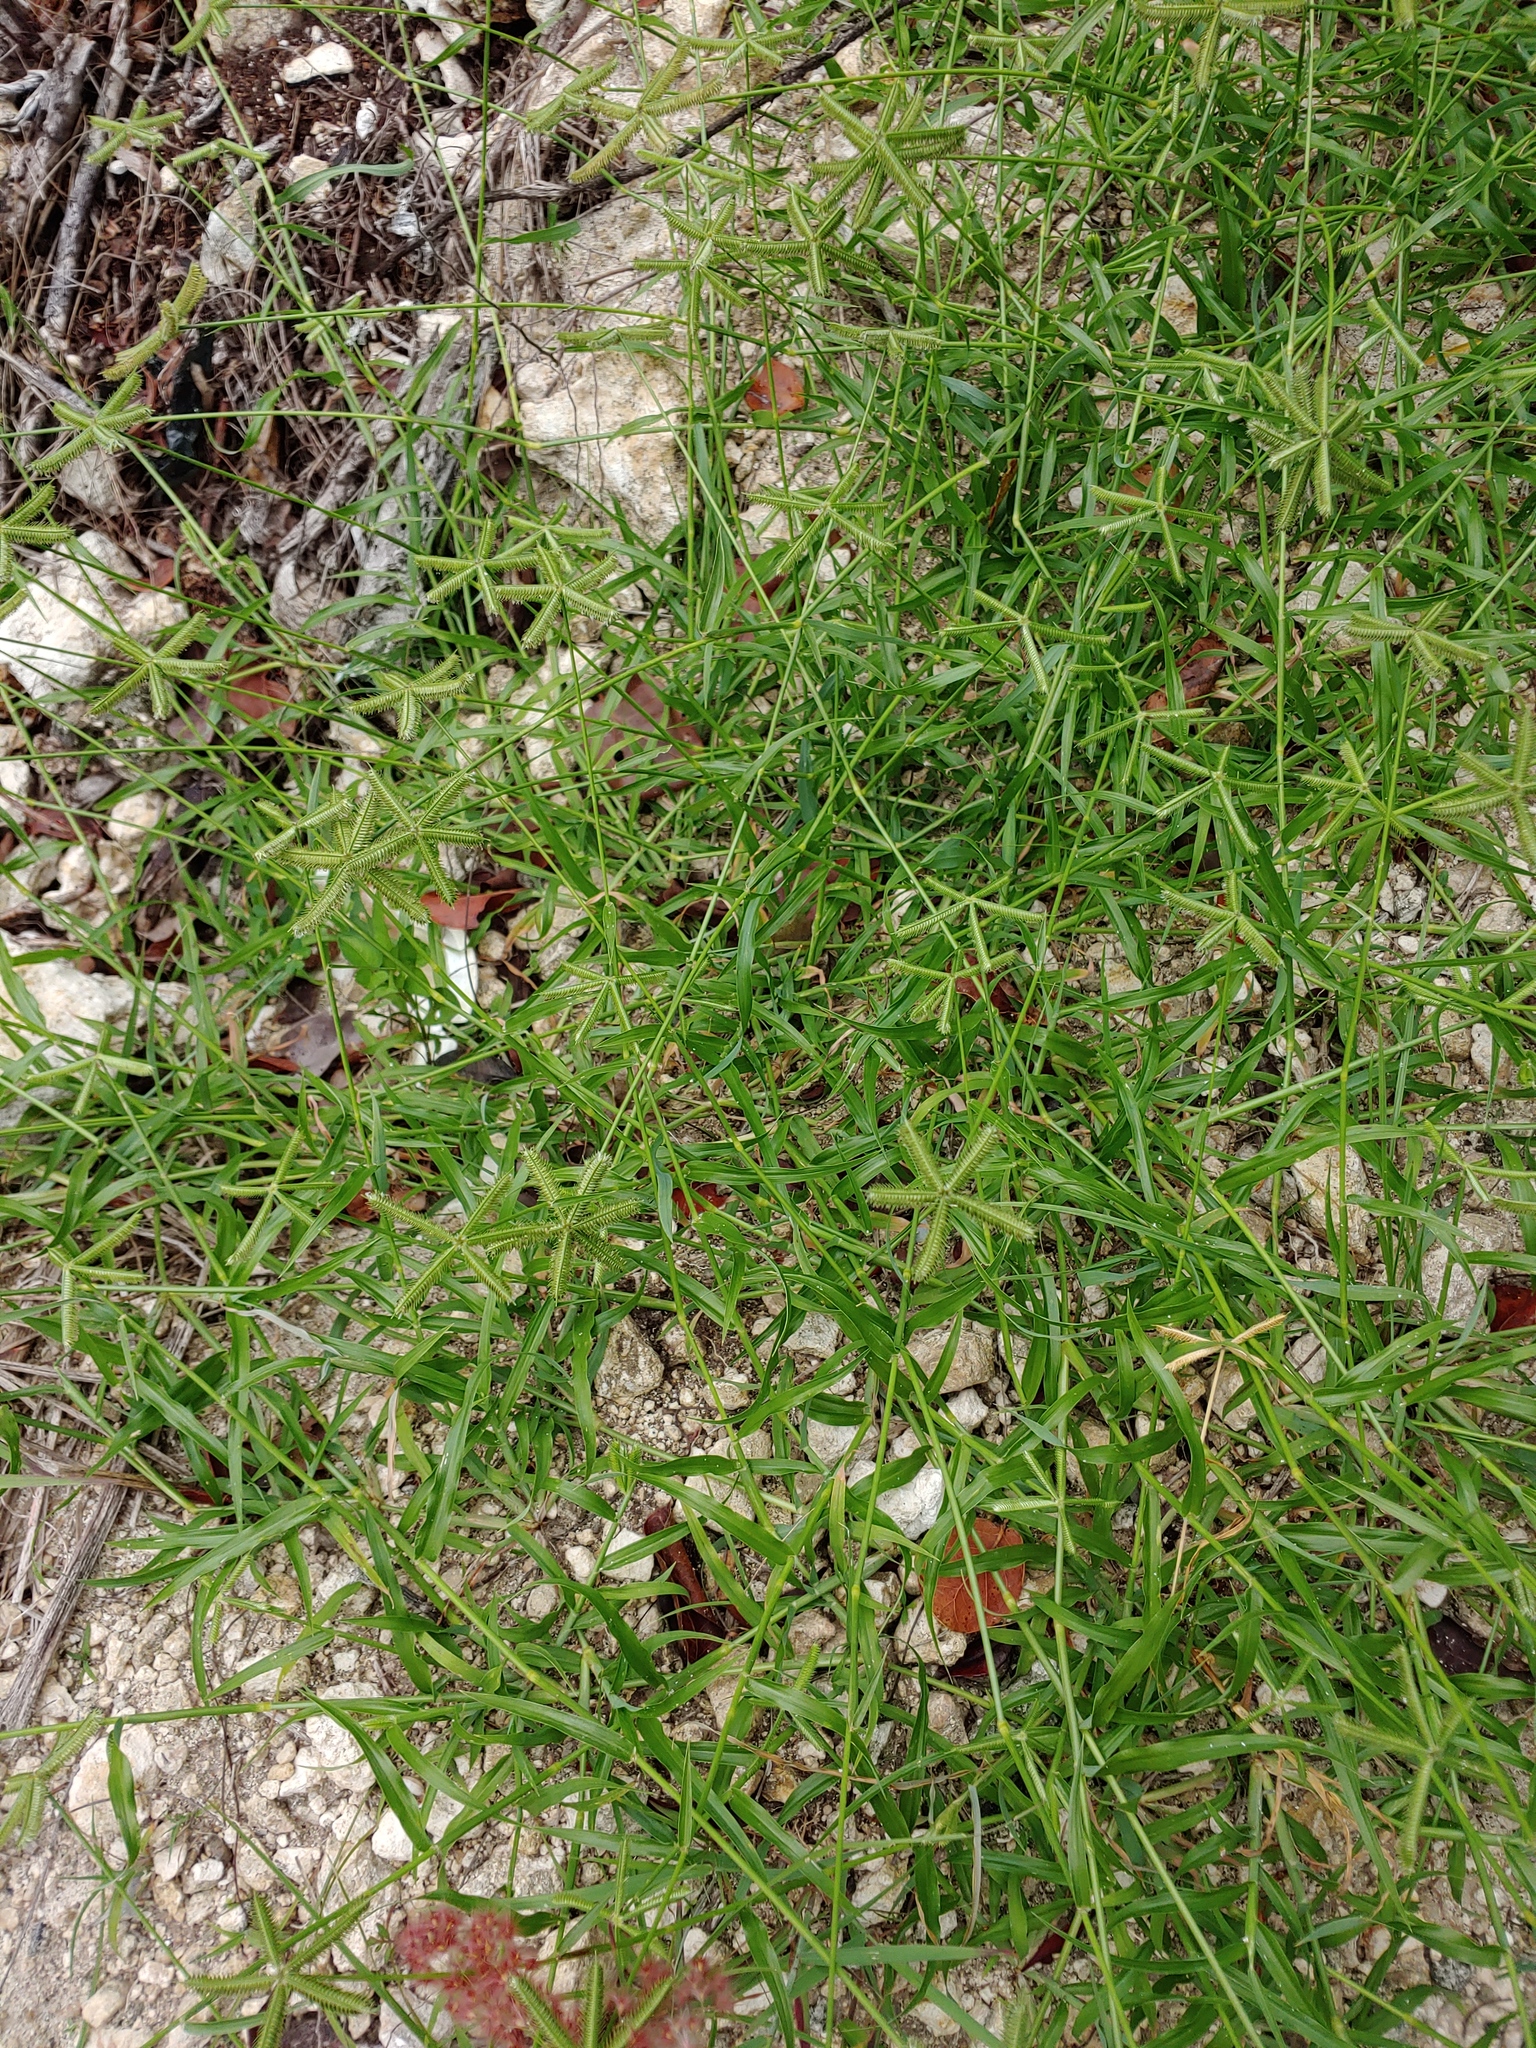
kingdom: Plantae
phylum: Tracheophyta
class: Liliopsida
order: Poales
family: Poaceae
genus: Dactyloctenium
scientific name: Dactyloctenium aegyptium
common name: Egyptian grass
